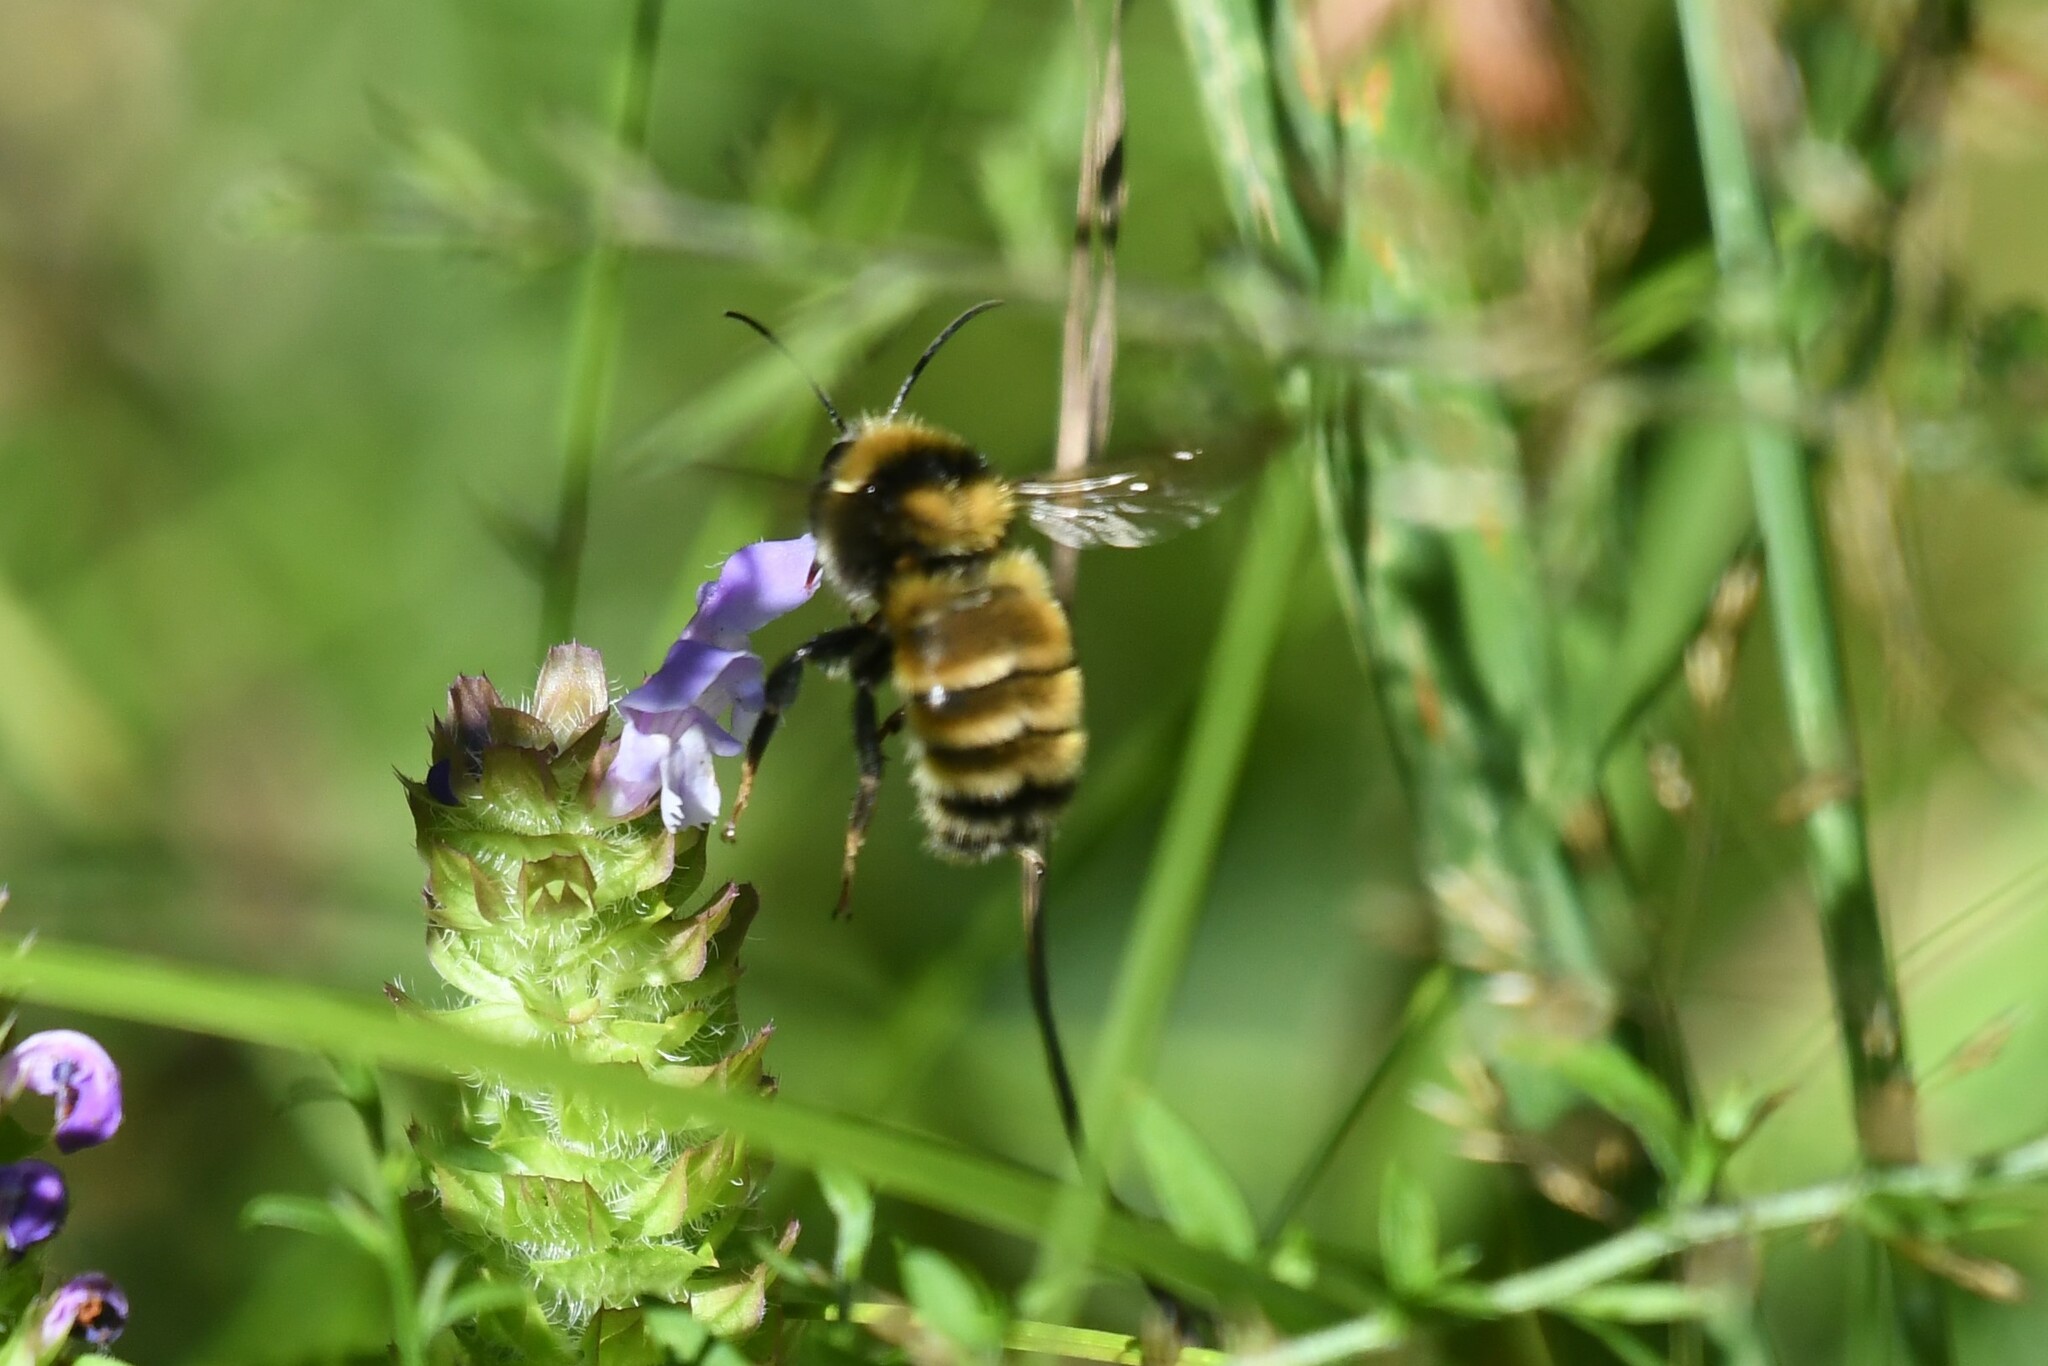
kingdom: Animalia
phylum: Arthropoda
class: Insecta
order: Hymenoptera
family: Apidae
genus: Bombus
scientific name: Bombus borealis
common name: Northern amber bumble bee
